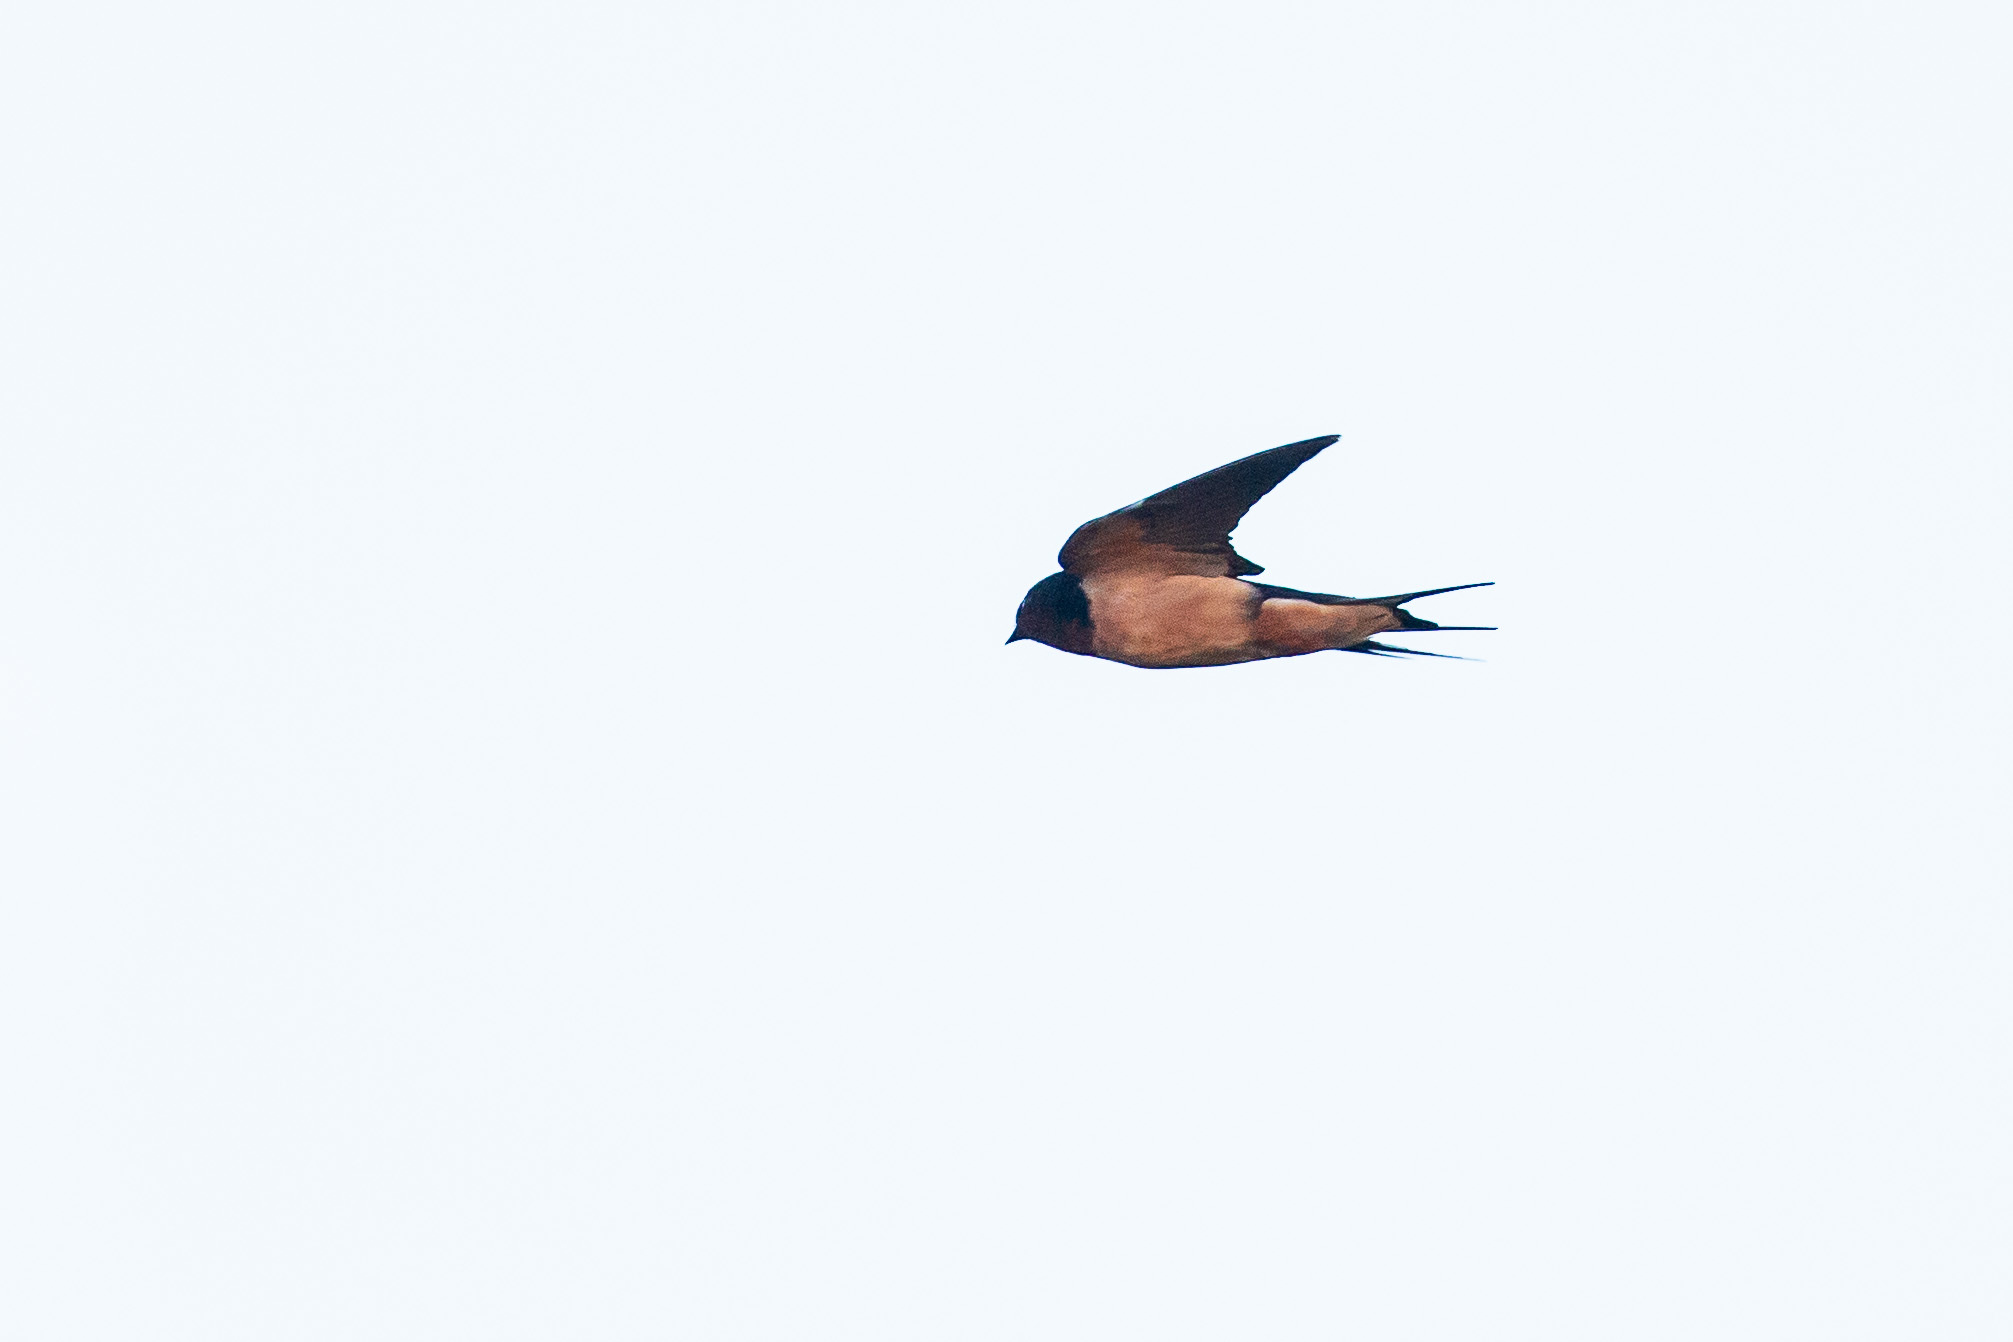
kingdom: Animalia
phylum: Chordata
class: Aves
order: Passeriformes
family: Hirundinidae
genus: Hirundo
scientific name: Hirundo rustica
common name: Barn swallow
